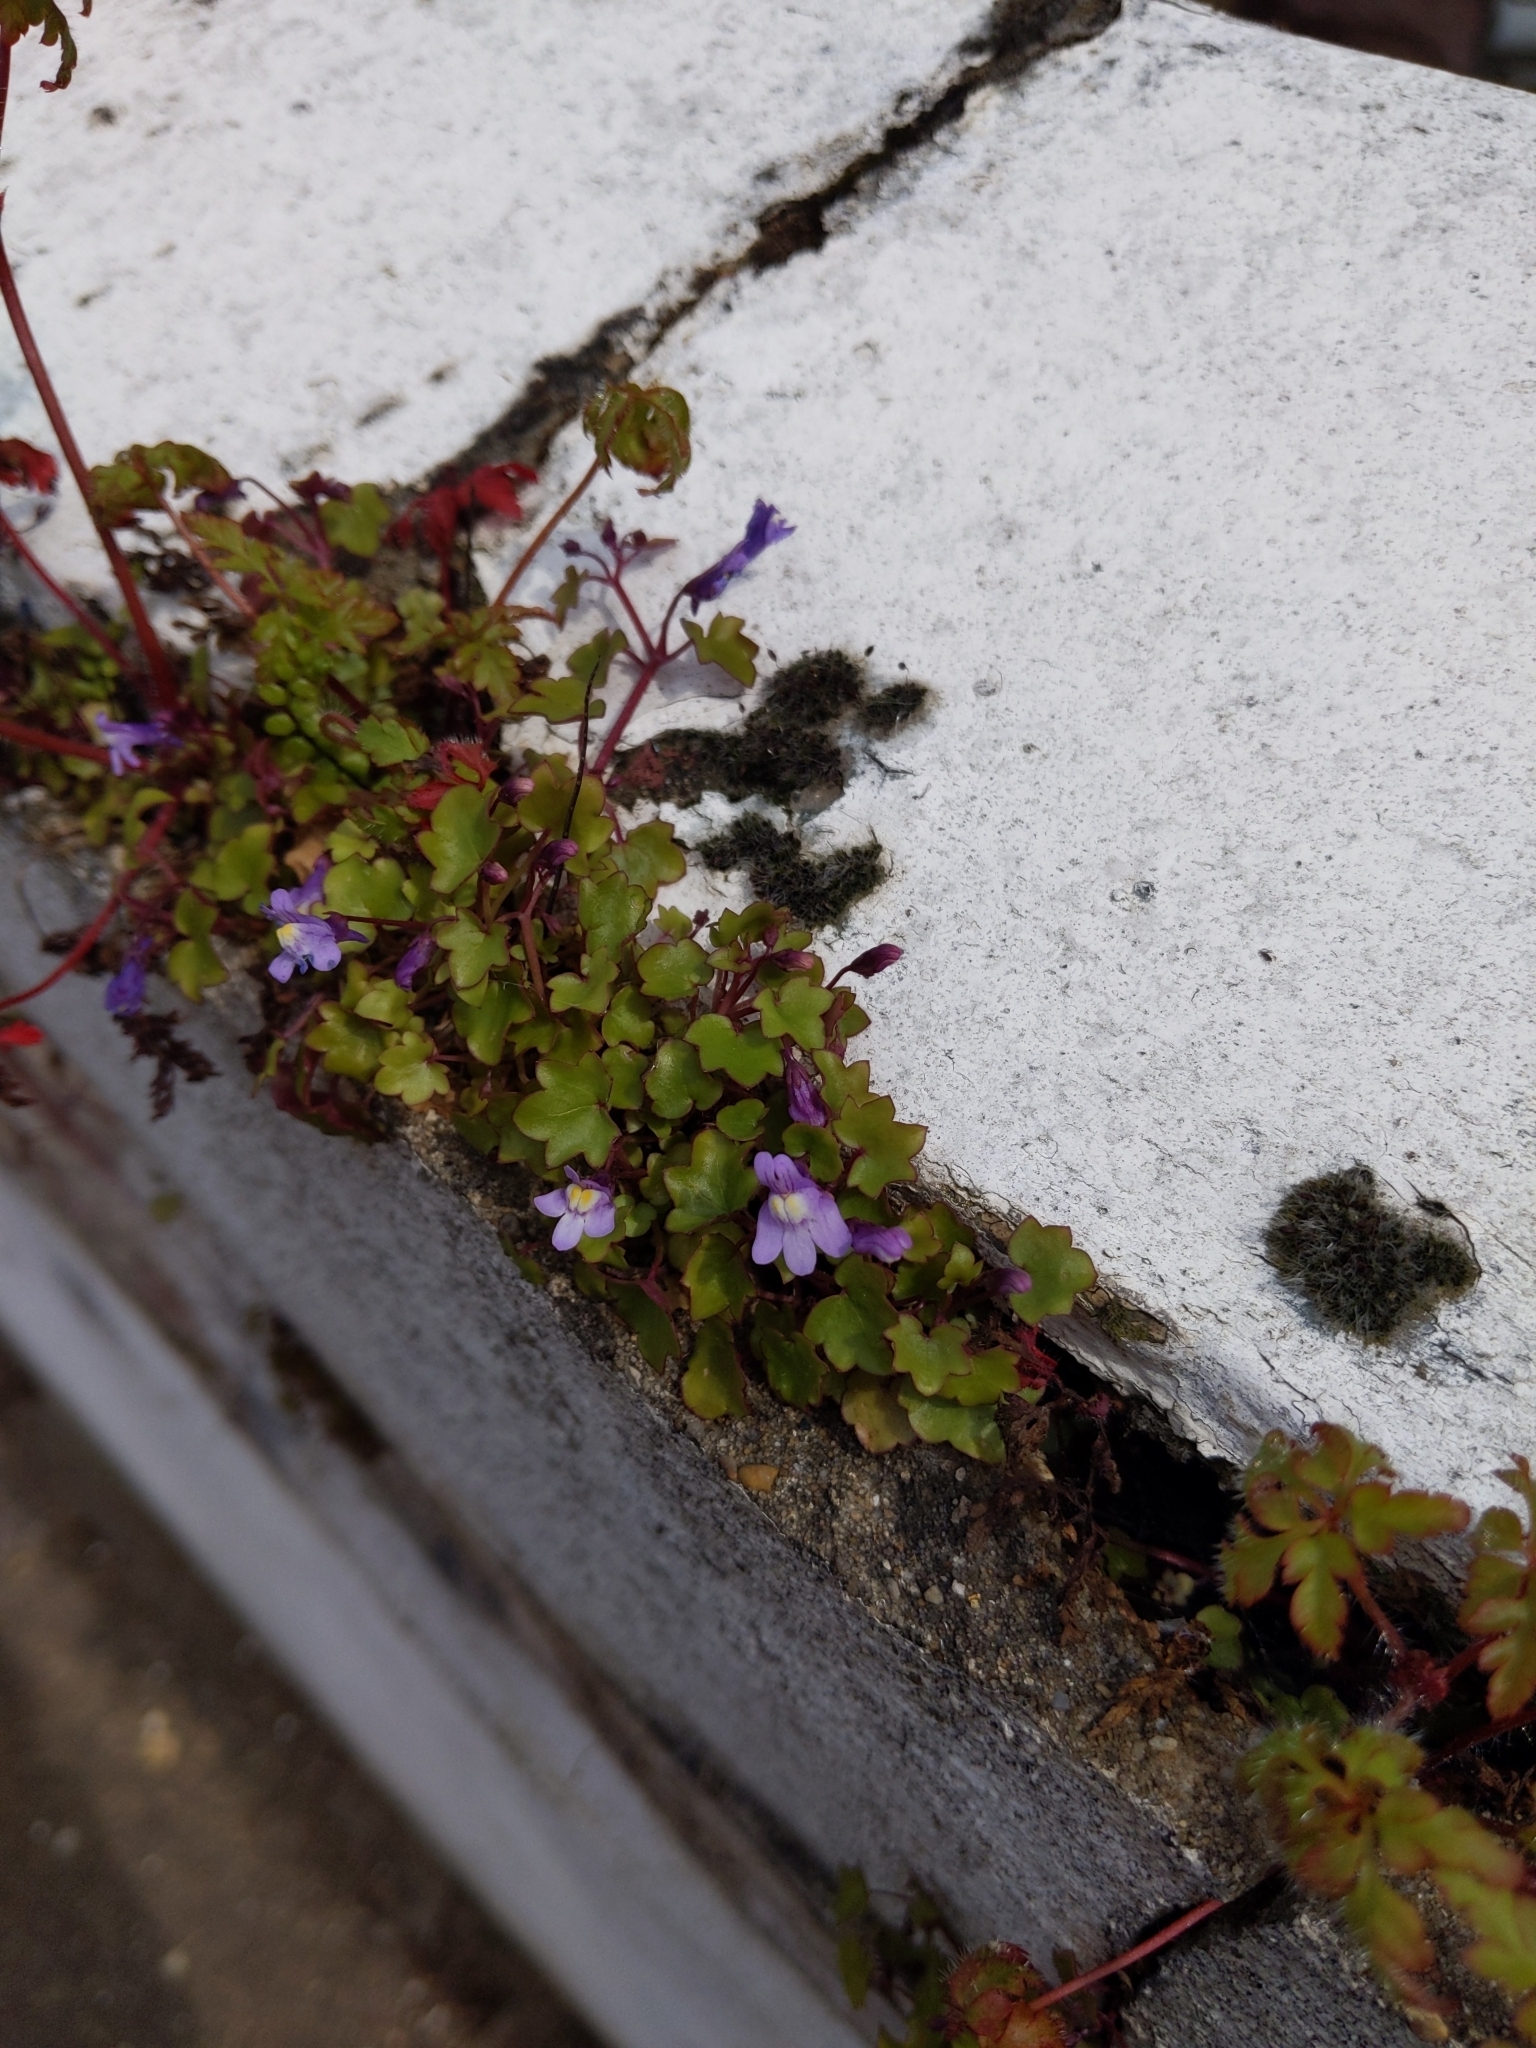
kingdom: Plantae
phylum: Tracheophyta
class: Magnoliopsida
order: Lamiales
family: Plantaginaceae
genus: Cymbalaria
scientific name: Cymbalaria muralis
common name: Ivy-leaved toadflax
